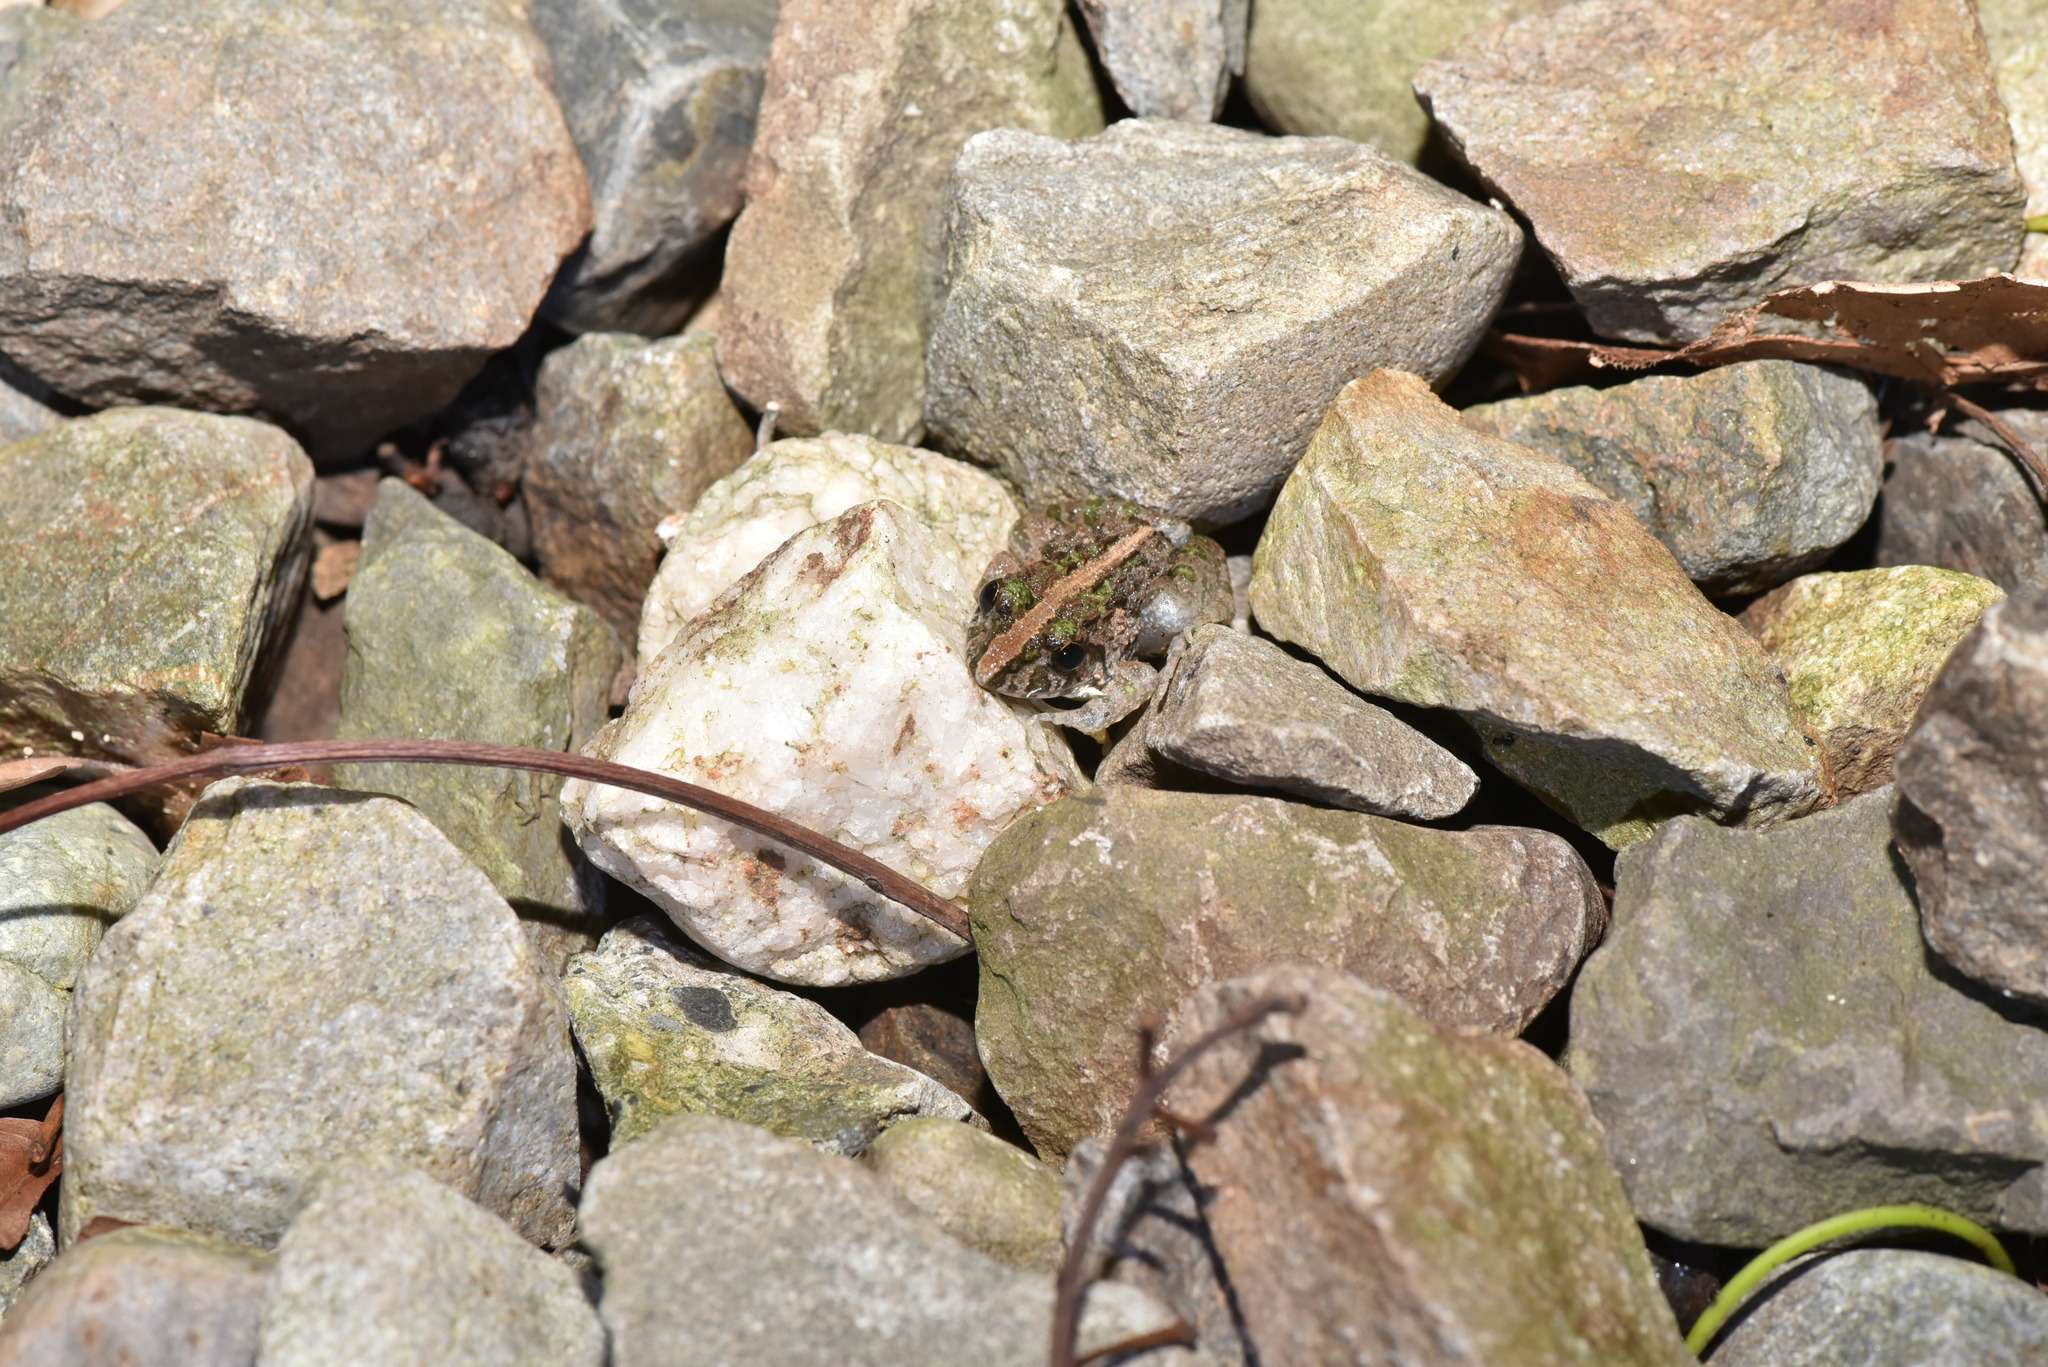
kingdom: Animalia
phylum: Chordata
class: Amphibia
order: Anura
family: Dicroglossidae
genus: Fejervarya
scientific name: Fejervarya limnocharis
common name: Asian grass frog/common pond frog/field frog/grass frog/indian rice frog
